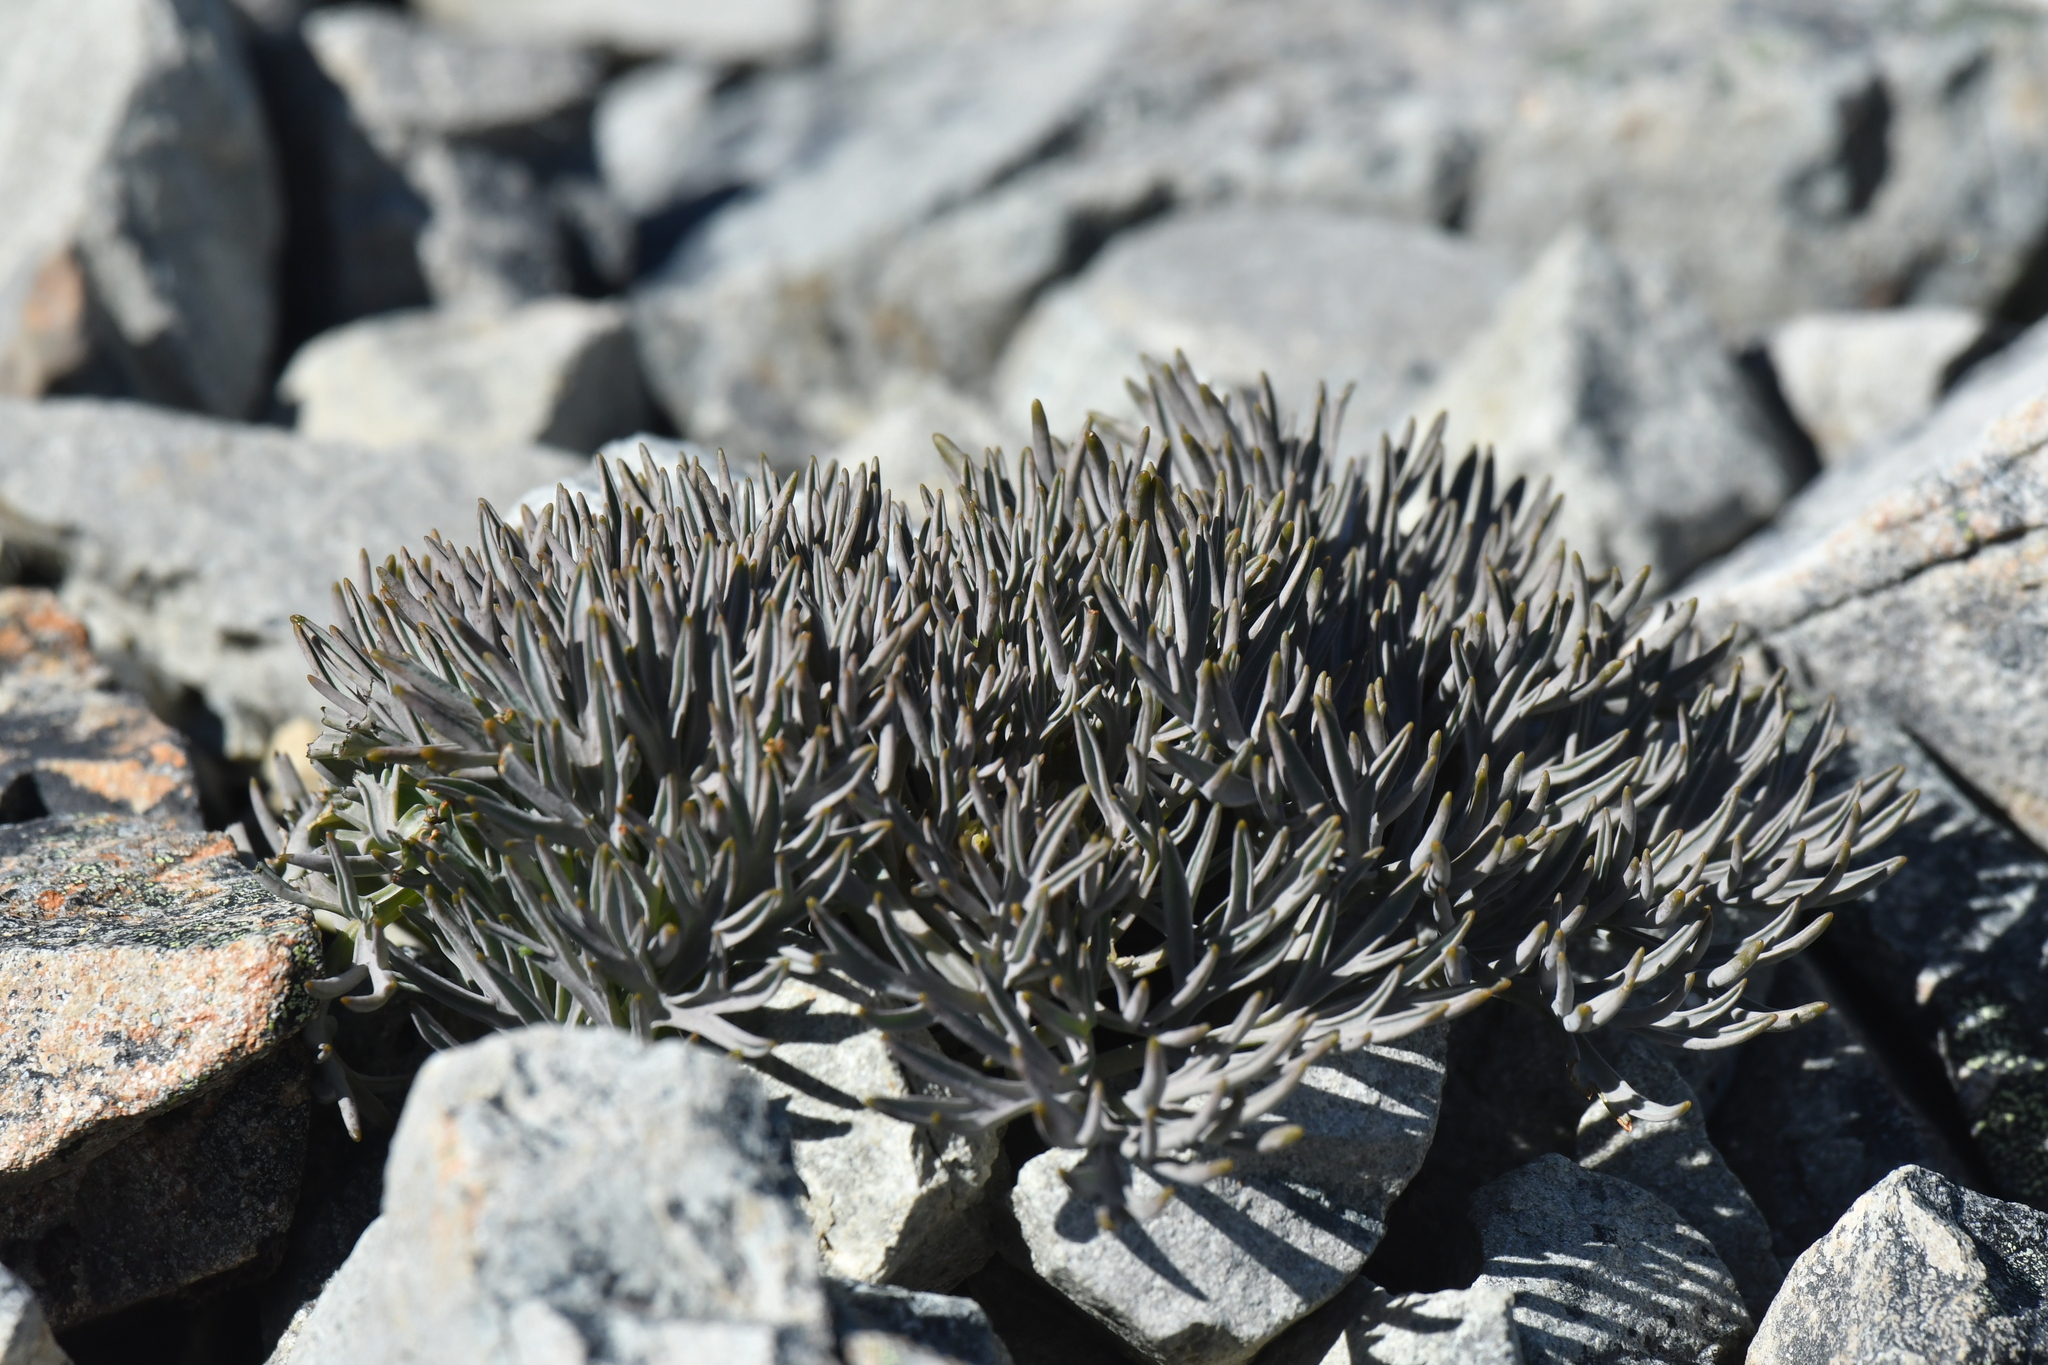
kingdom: Plantae
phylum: Tracheophyta
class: Magnoliopsida
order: Apiales
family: Apiaceae
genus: Lignocarpa
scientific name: Lignocarpa carnosula
